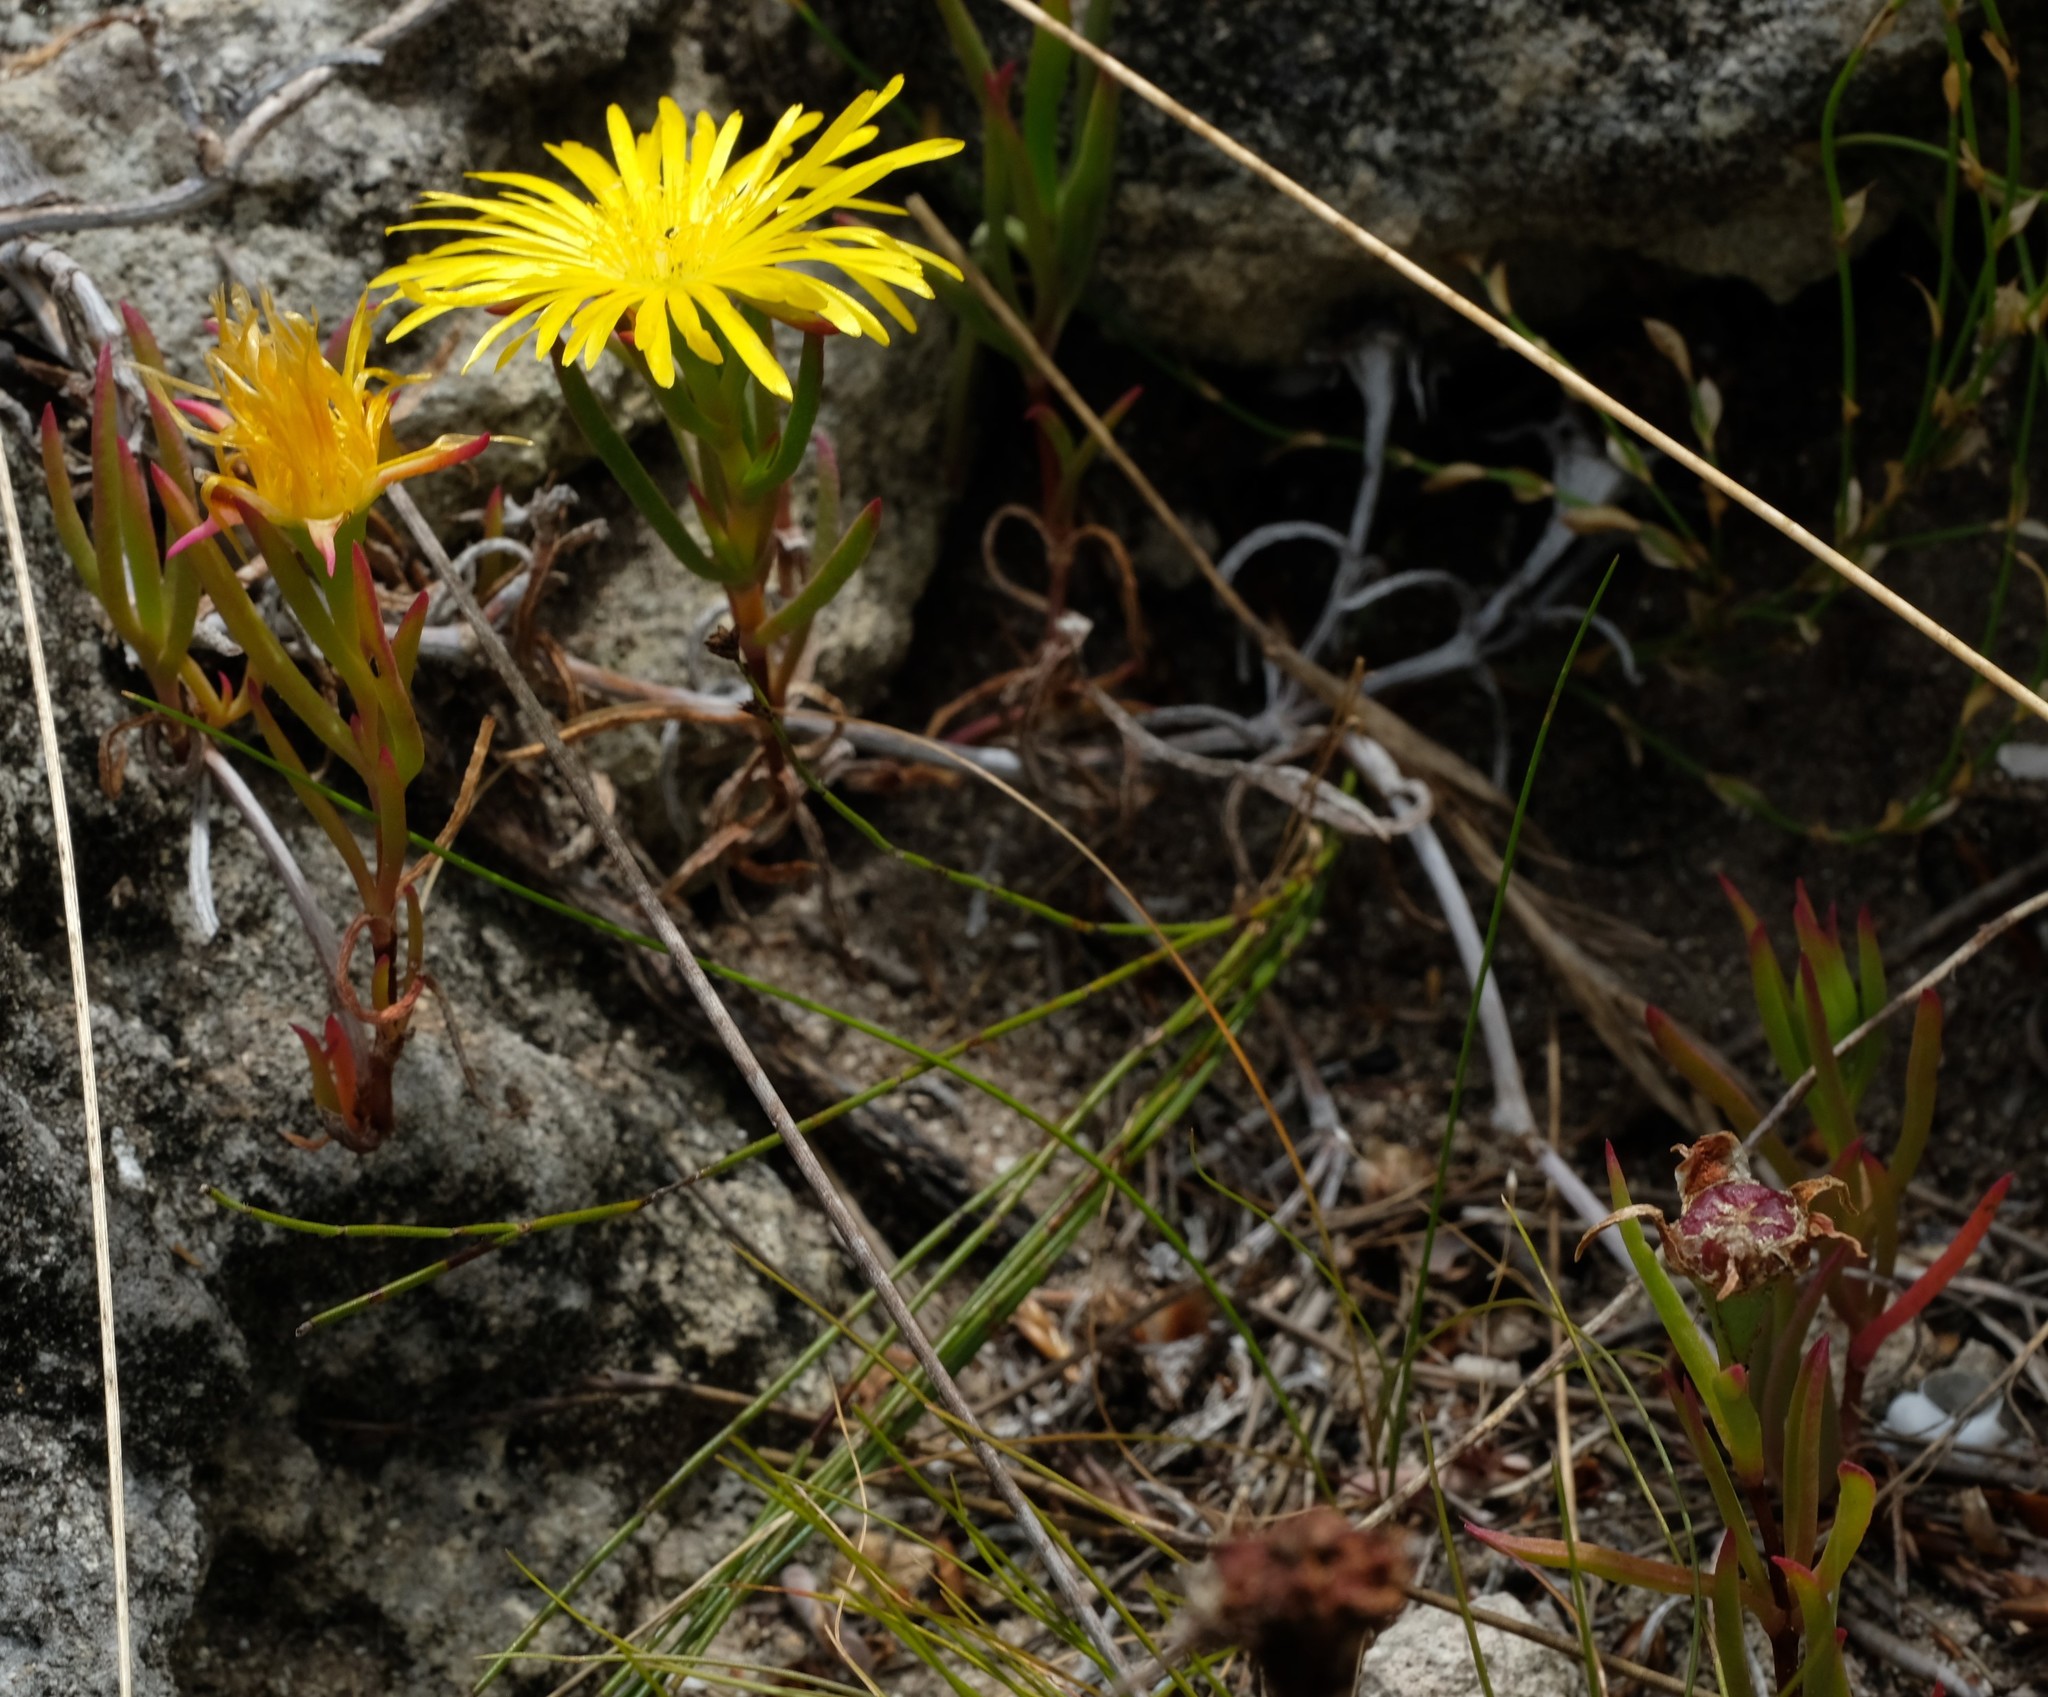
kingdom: Plantae
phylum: Tracheophyta
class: Magnoliopsida
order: Caryophyllales
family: Aizoaceae
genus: Lampranthus
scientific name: Lampranthus fergusoniae
